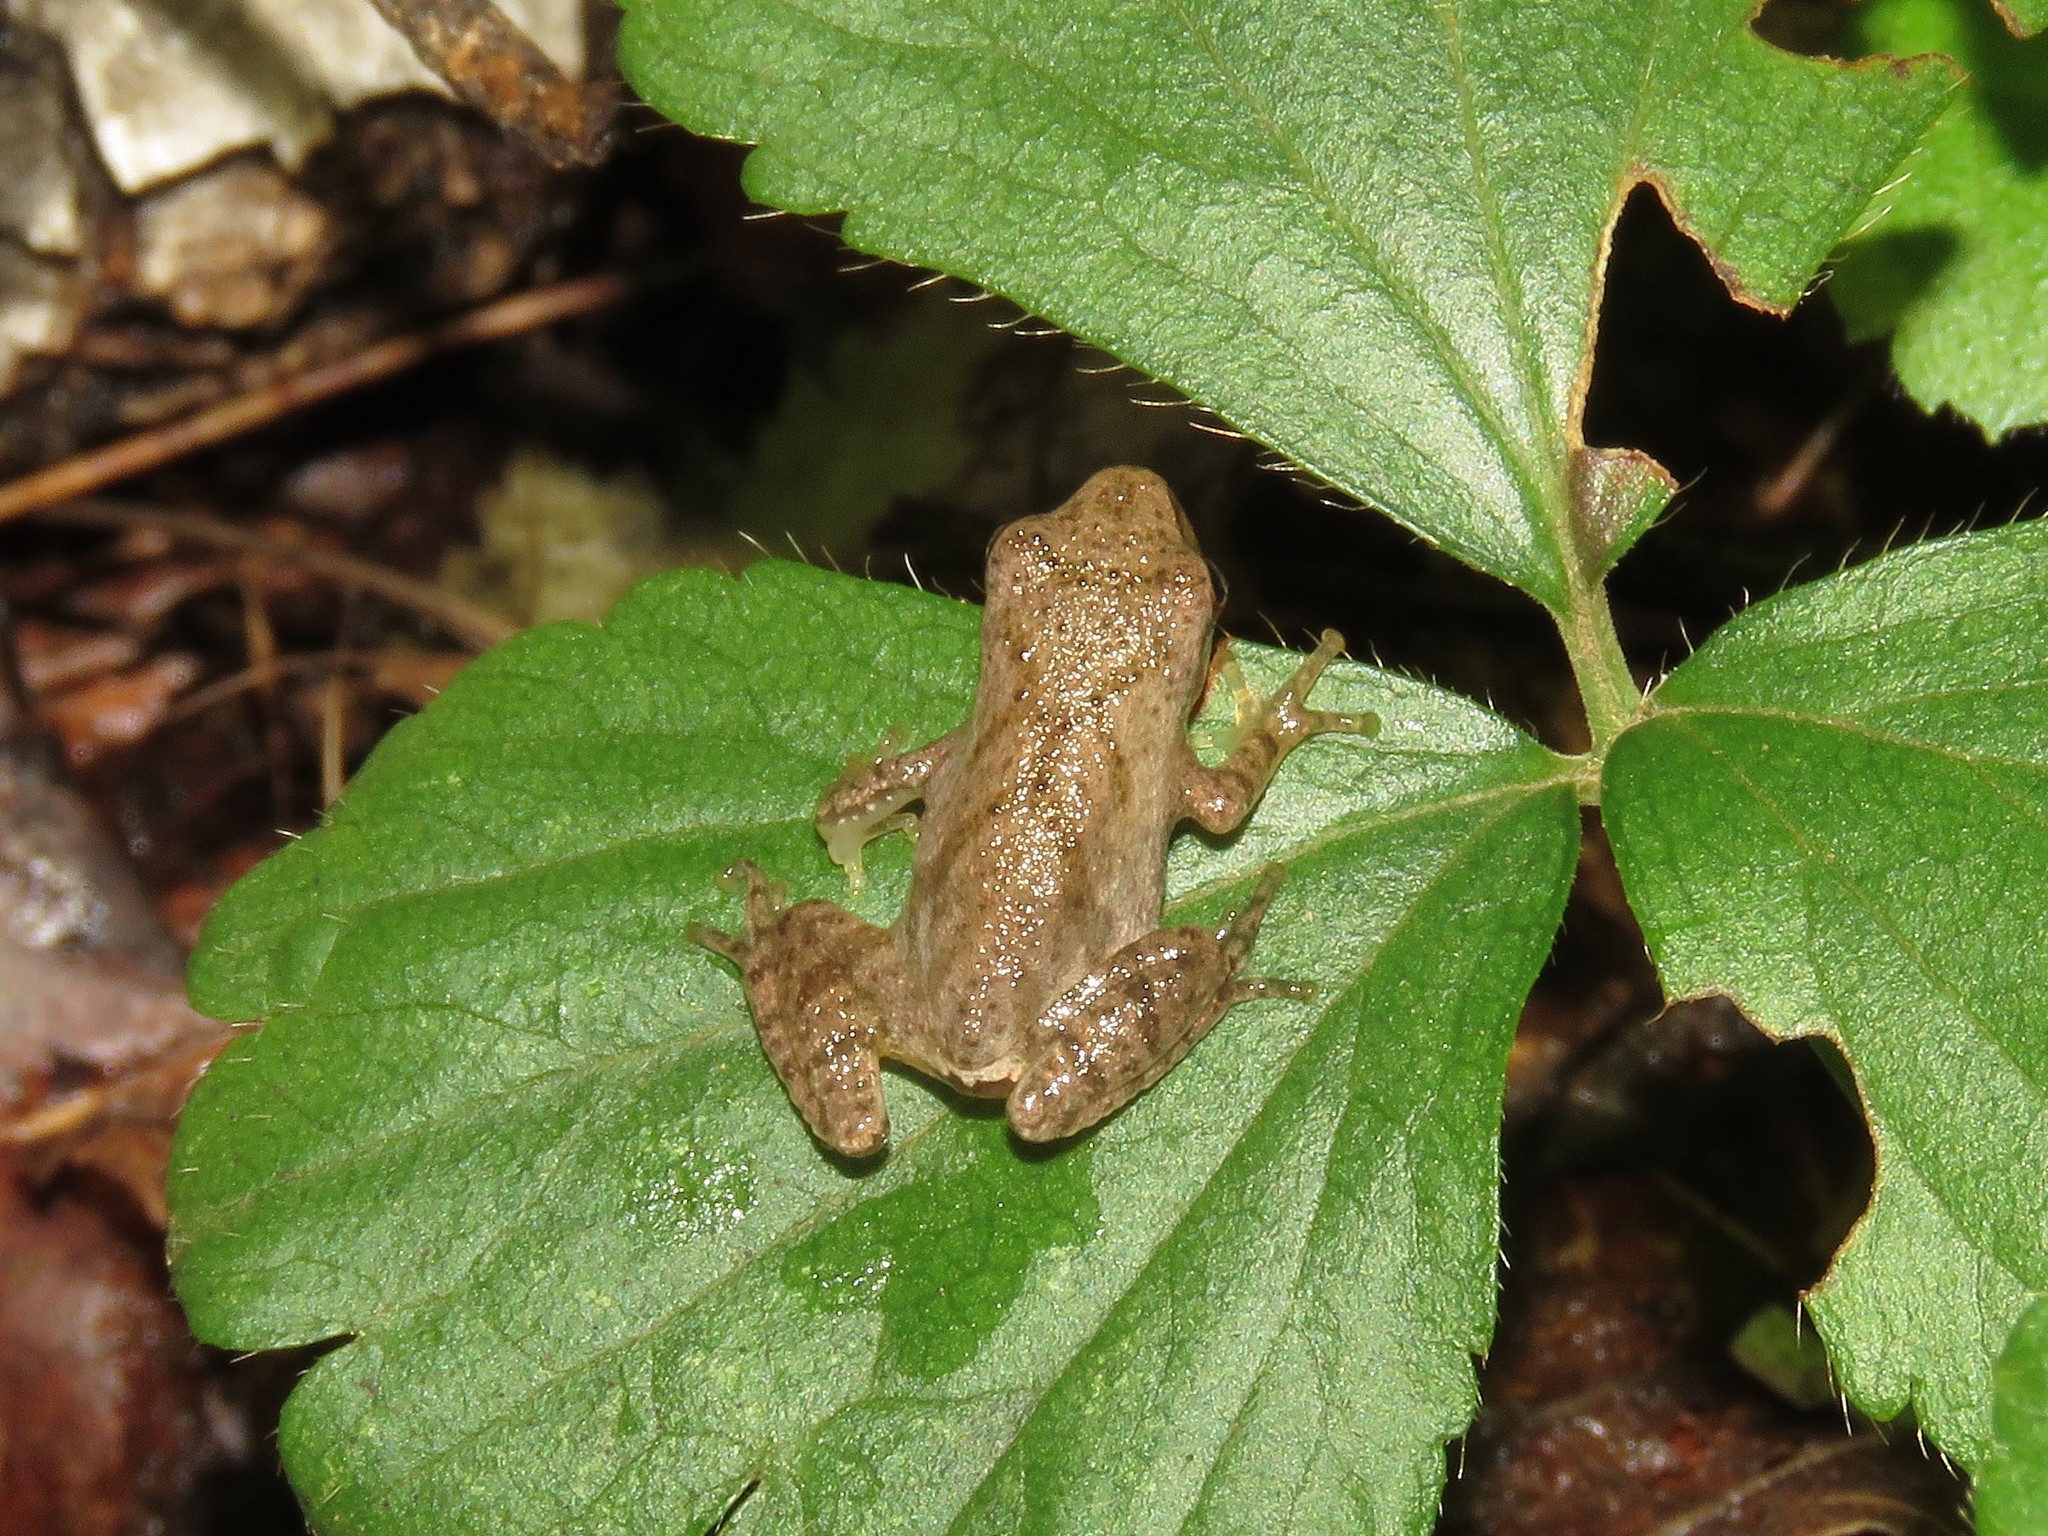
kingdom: Animalia
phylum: Chordata
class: Amphibia
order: Anura
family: Hylidae
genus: Pseudacris
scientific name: Pseudacris crucifer
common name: Spring peeper
